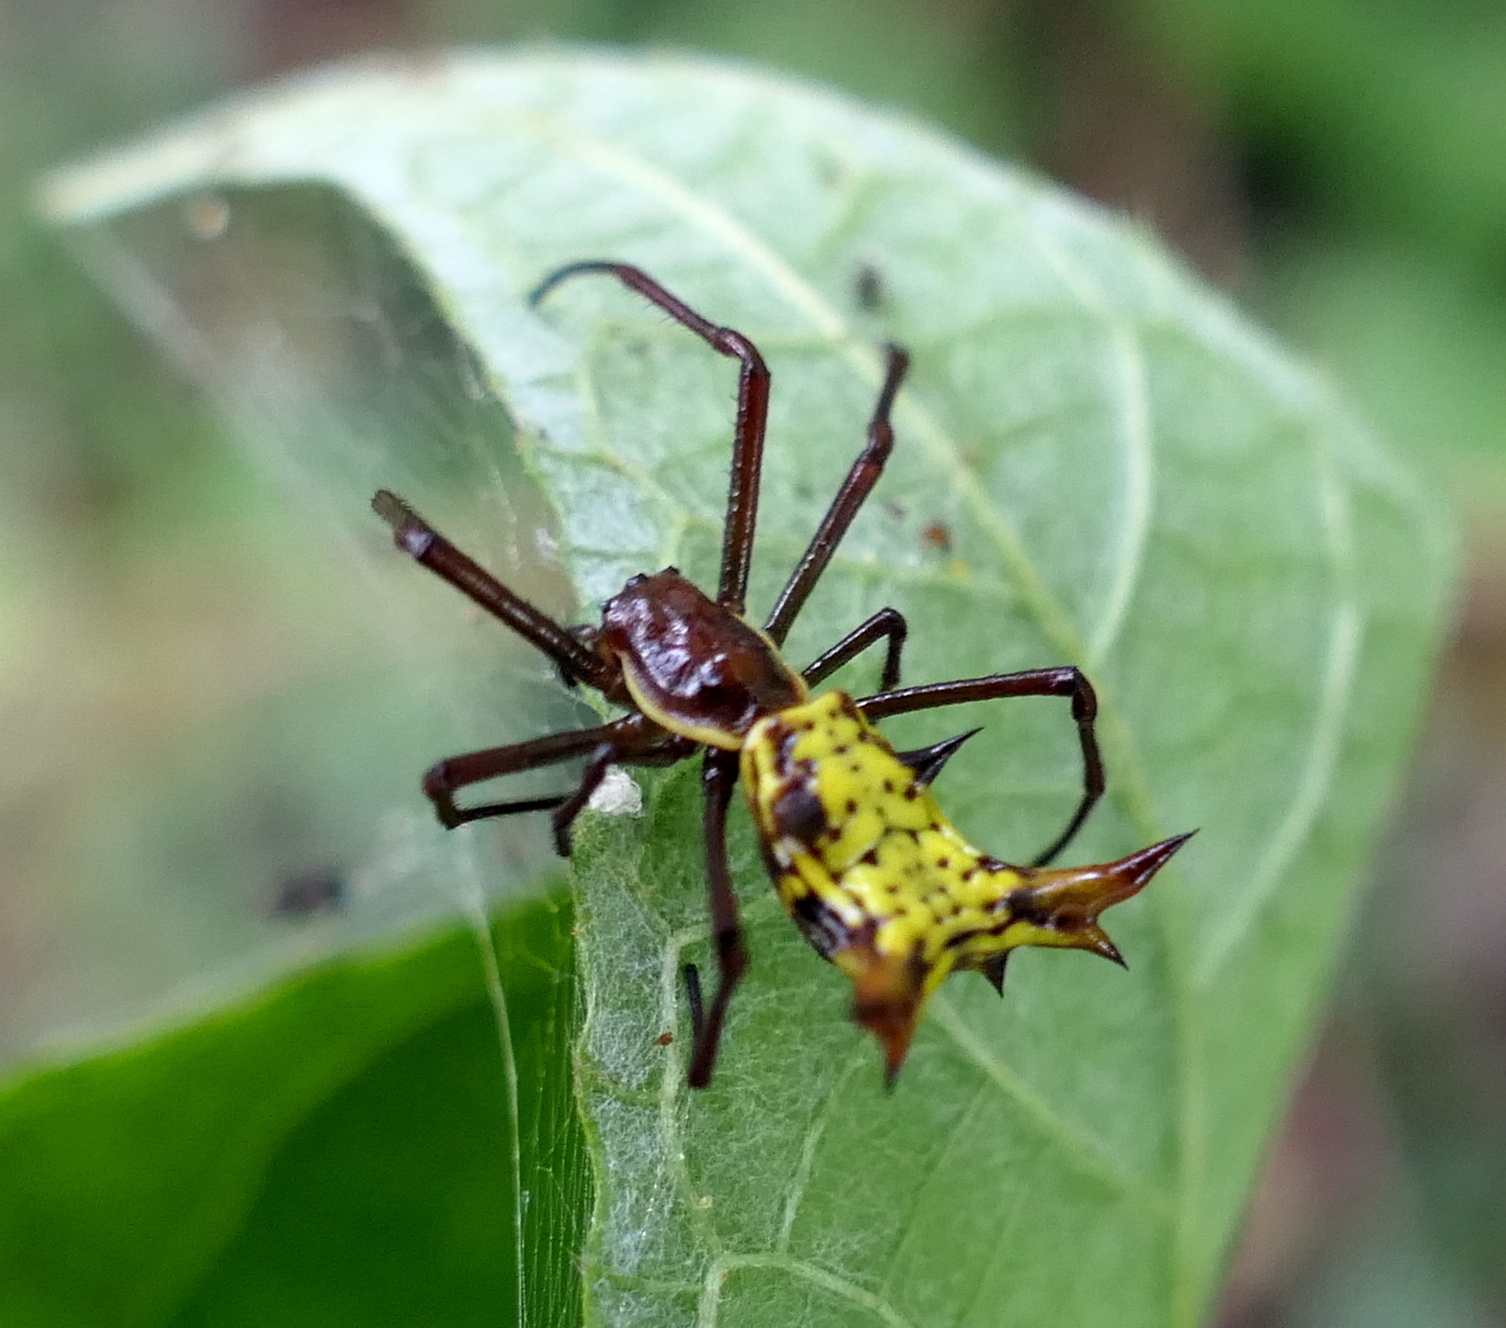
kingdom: Animalia
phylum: Arthropoda
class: Arachnida
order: Araneae
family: Araneidae
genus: Micrathena
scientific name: Micrathena fissispina
